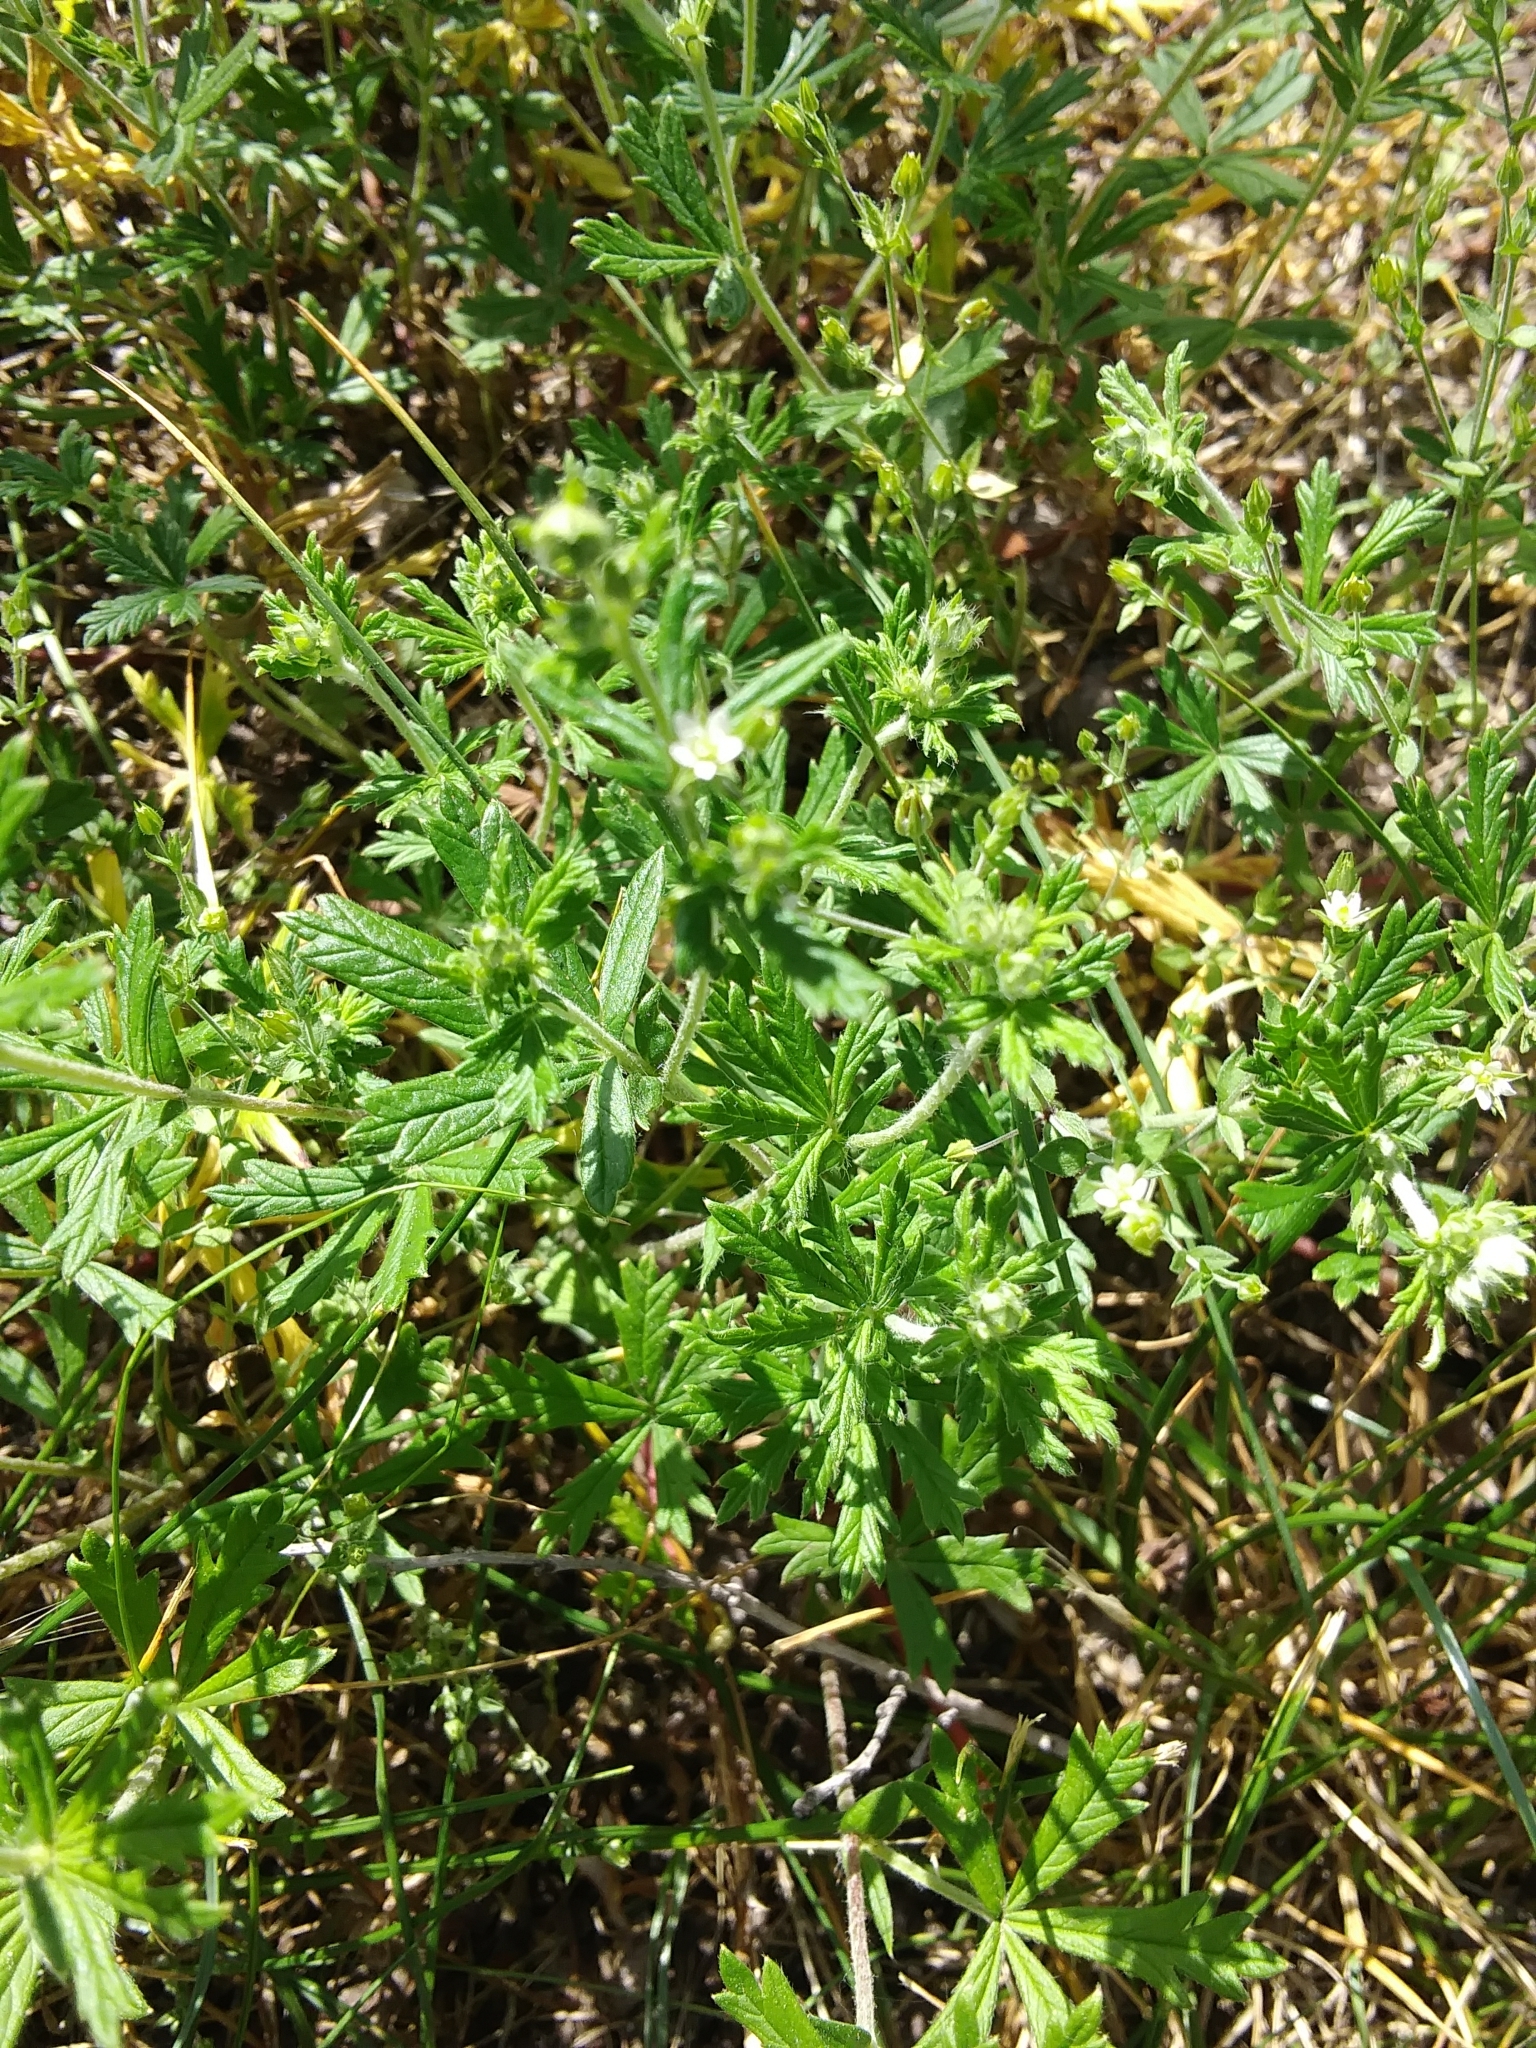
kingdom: Plantae
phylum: Tracheophyta
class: Magnoliopsida
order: Rosales
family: Rosaceae
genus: Potentilla
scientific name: Potentilla argentea
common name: Hoary cinquefoil
